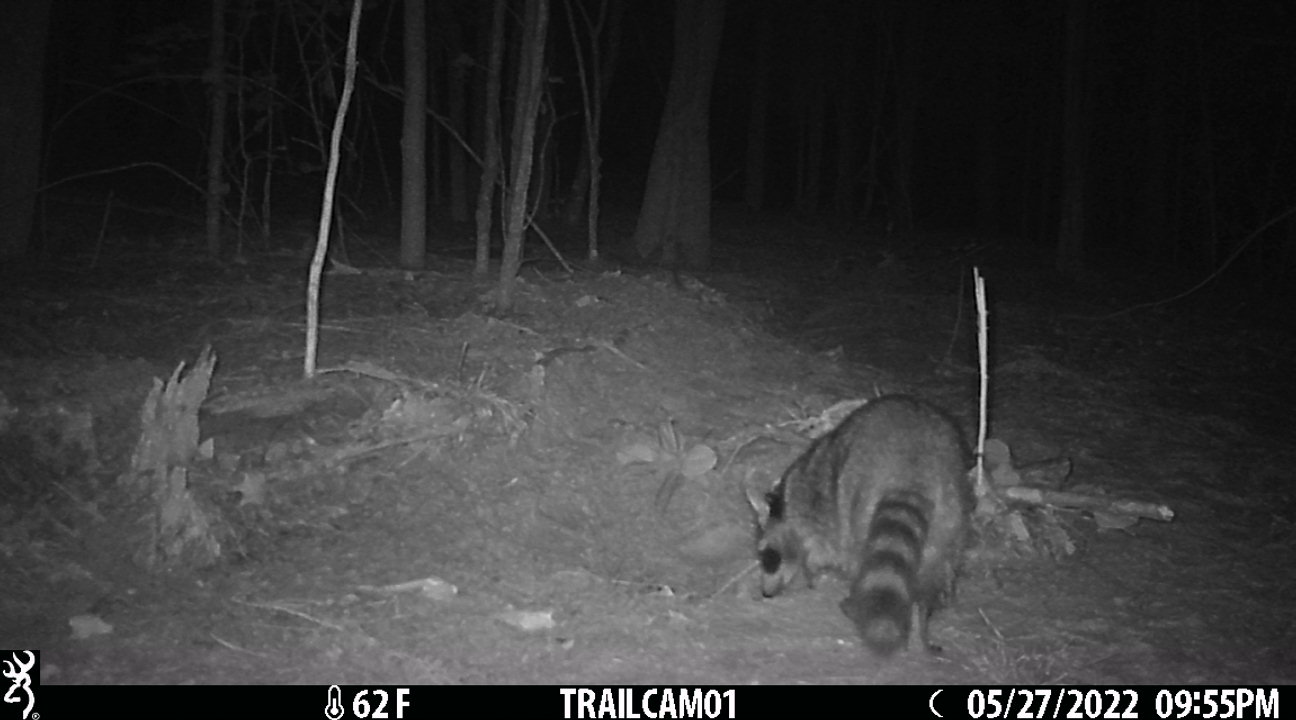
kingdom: Animalia
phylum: Chordata
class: Mammalia
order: Carnivora
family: Procyonidae
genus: Procyon
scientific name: Procyon lotor
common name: Raccoon
